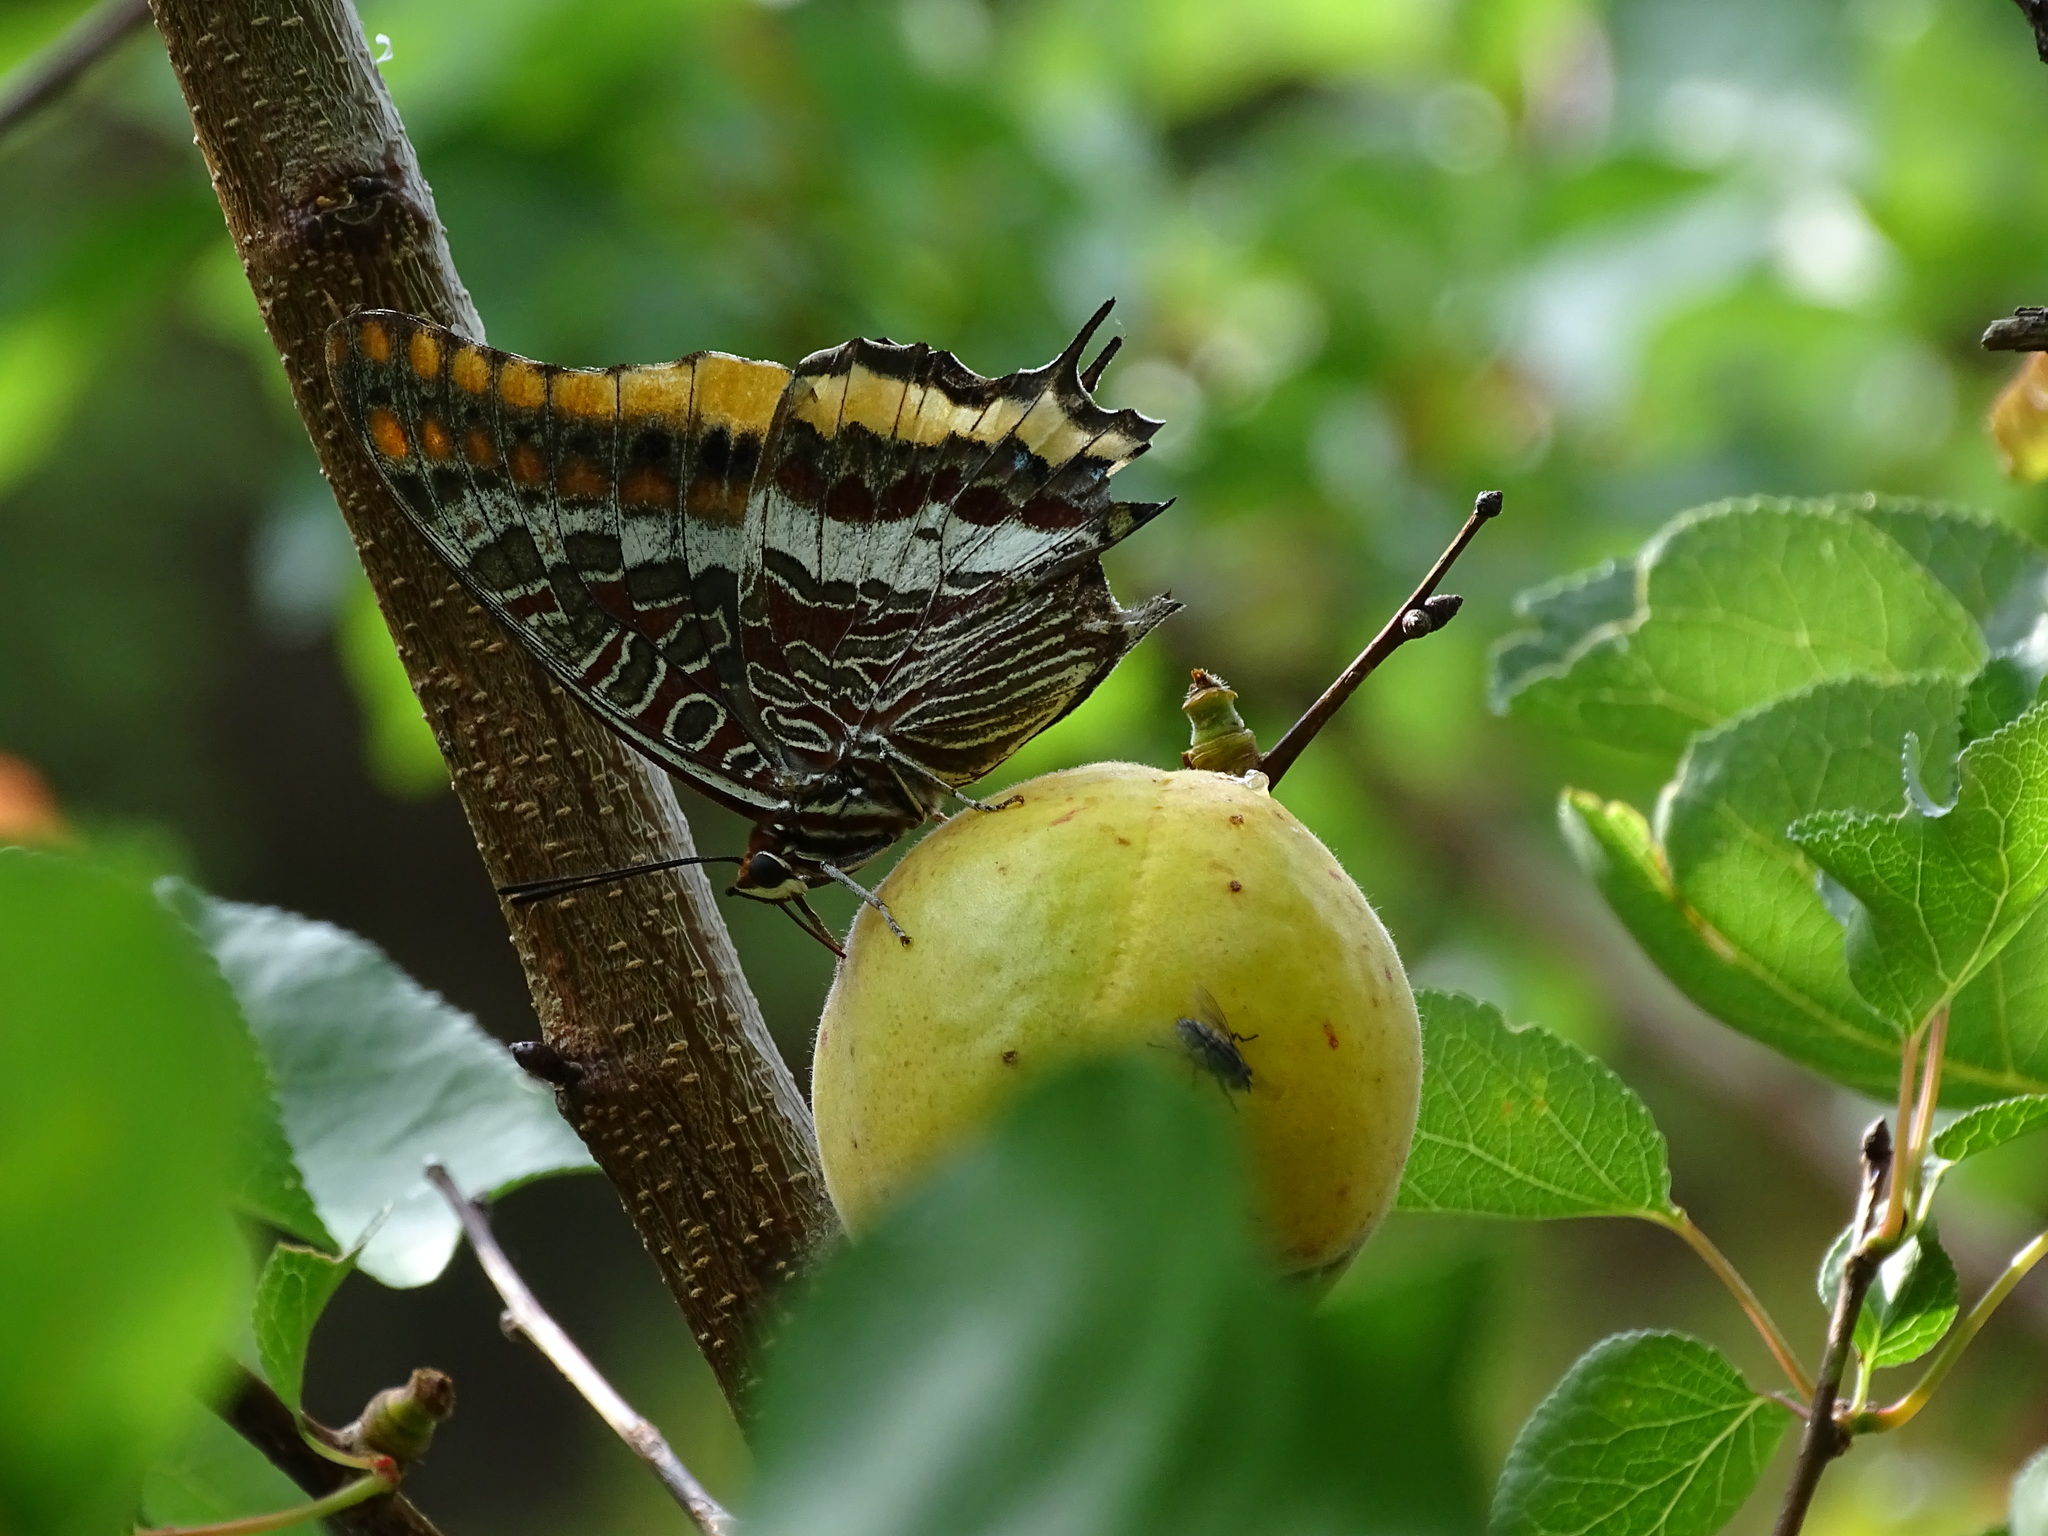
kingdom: Animalia
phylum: Arthropoda
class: Insecta
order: Lepidoptera
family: Nymphalidae
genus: Charaxes
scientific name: Charaxes jasius
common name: Two tailed pasha
